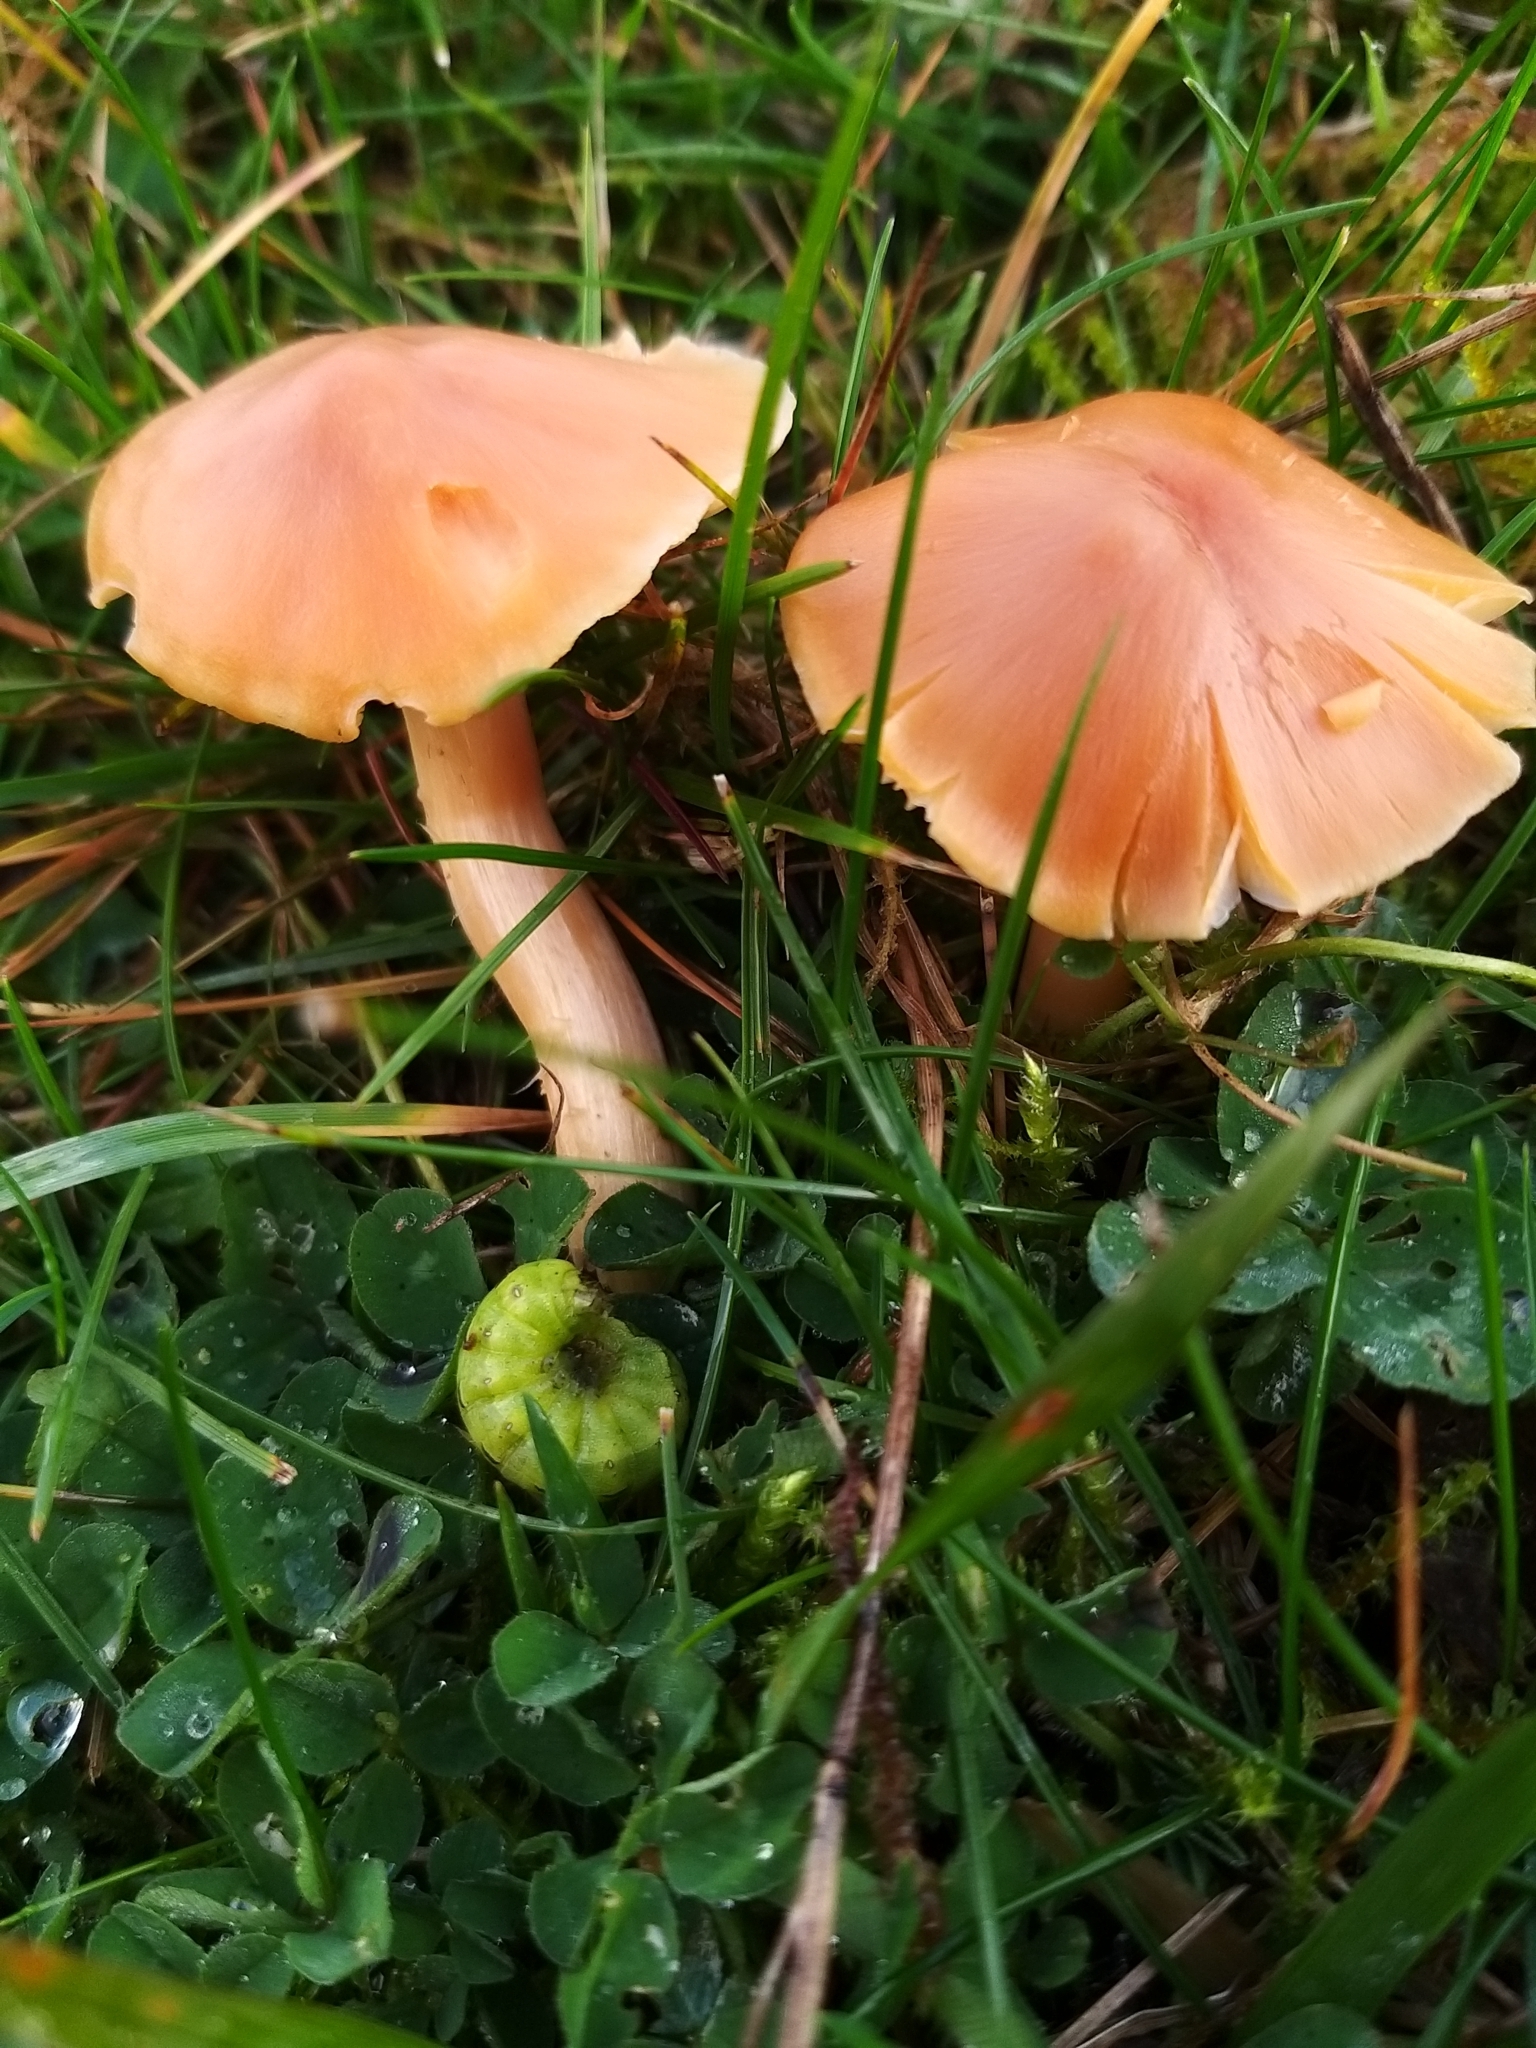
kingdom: Fungi
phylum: Basidiomycota
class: Agaricomycetes
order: Agaricales
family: Hygrophoraceae
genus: Cuphophyllus
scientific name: Cuphophyllus pratensis
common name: Meadow waxcap
